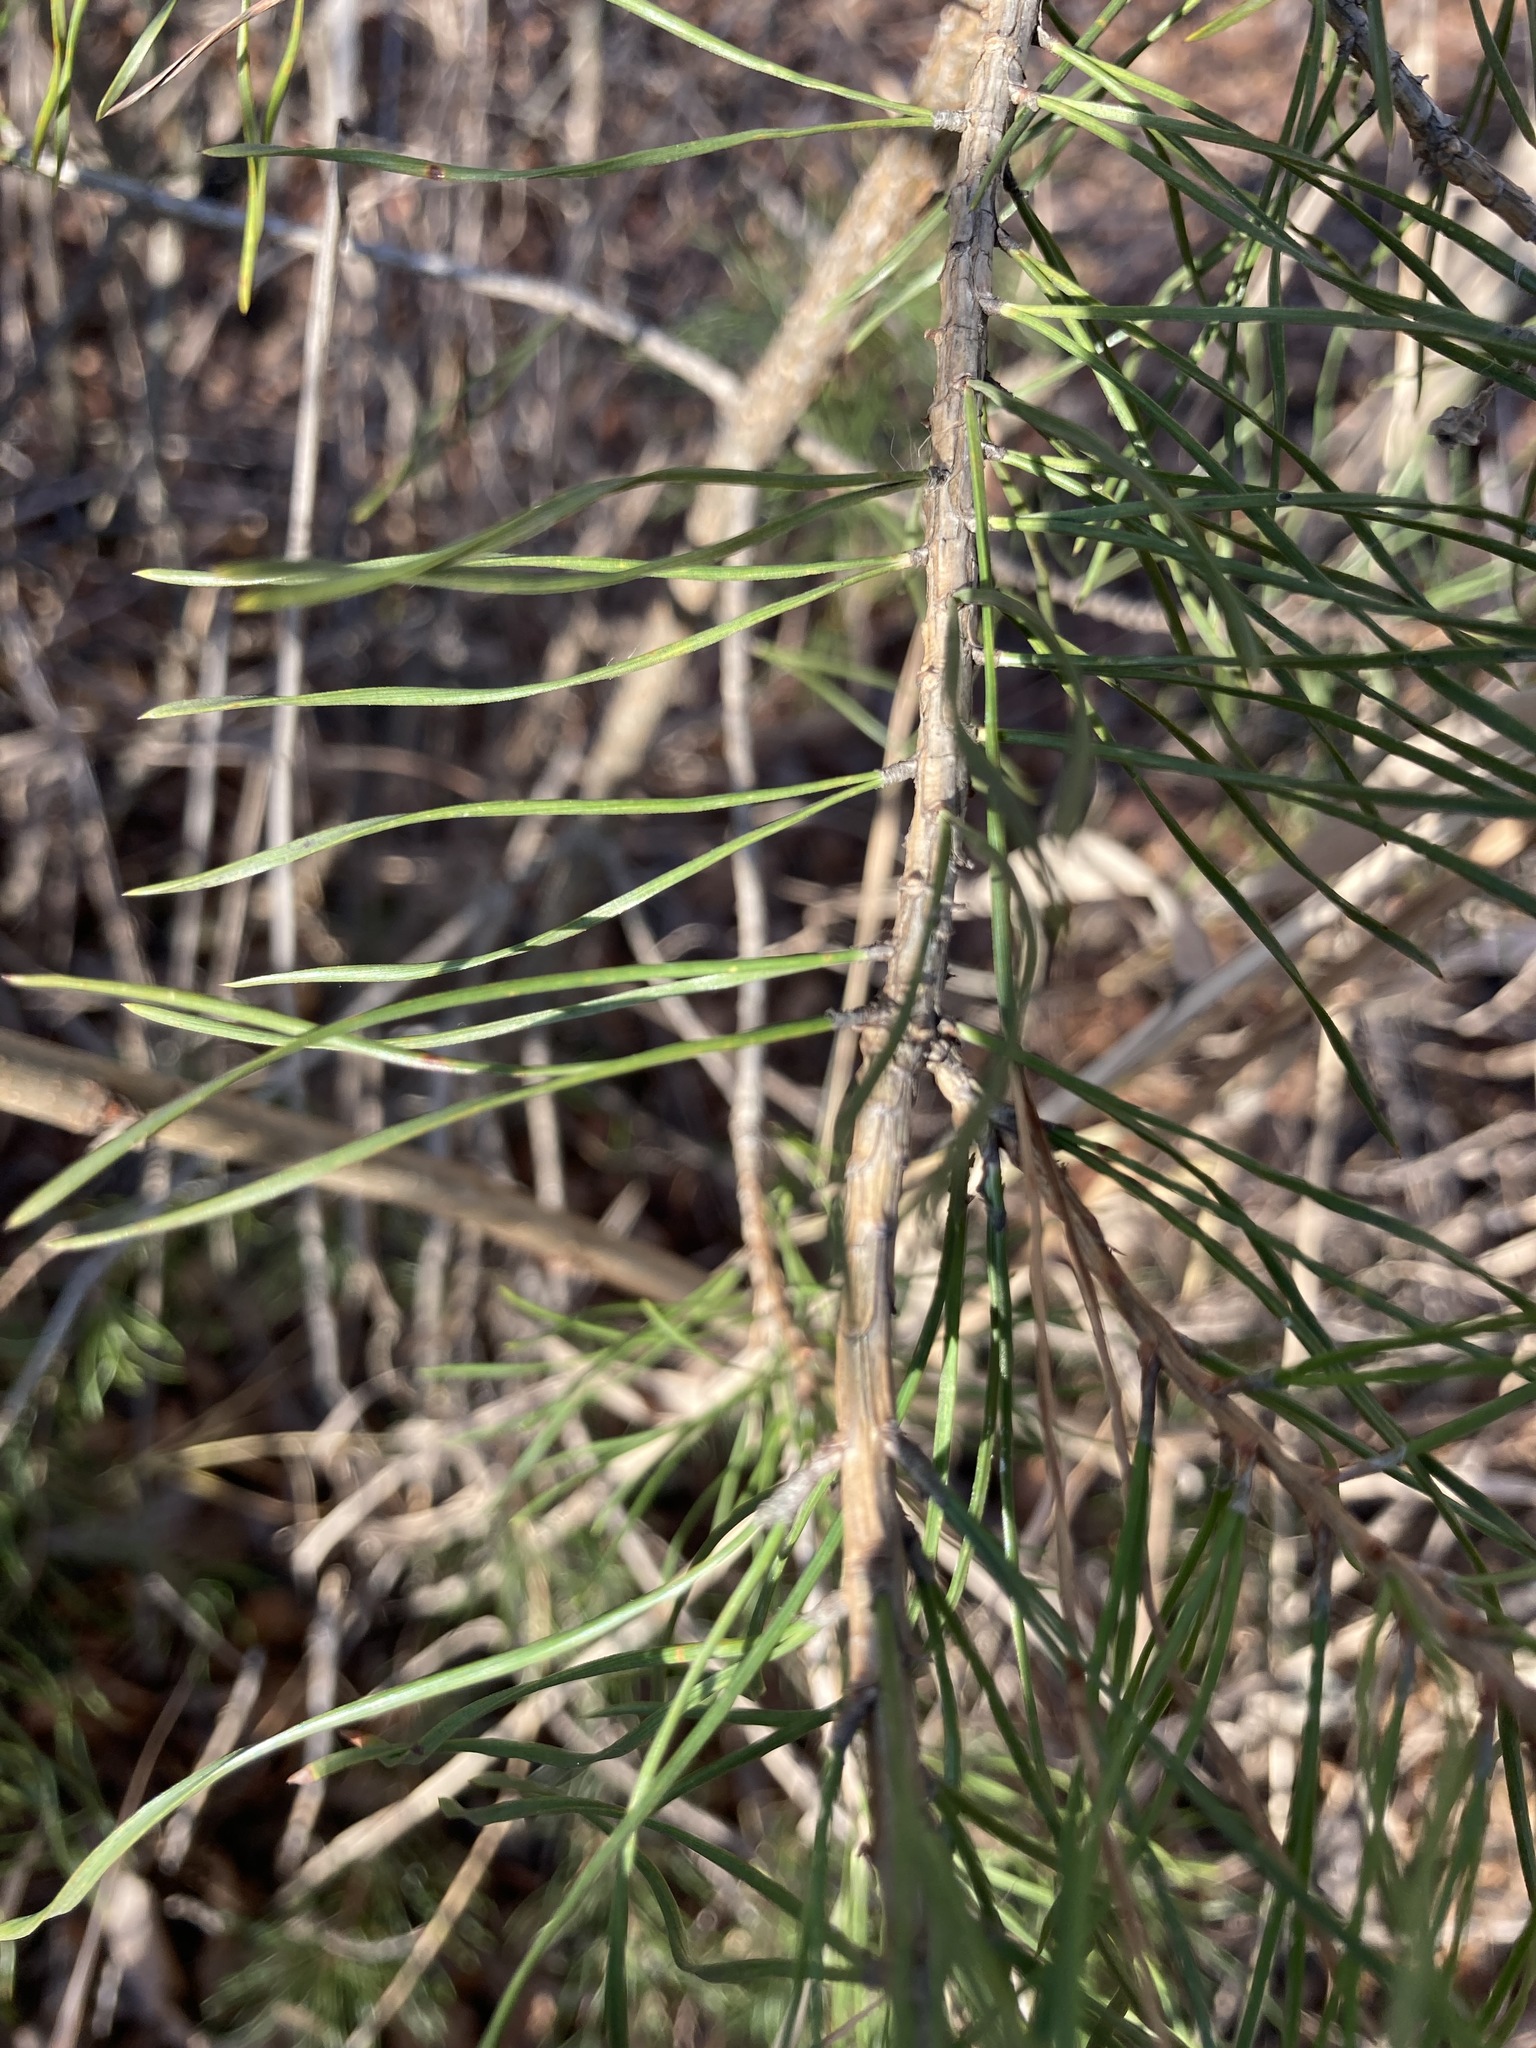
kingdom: Plantae
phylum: Tracheophyta
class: Pinopsida
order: Pinales
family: Pinaceae
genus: Pinus
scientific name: Pinus sylvestris
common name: Scots pine
